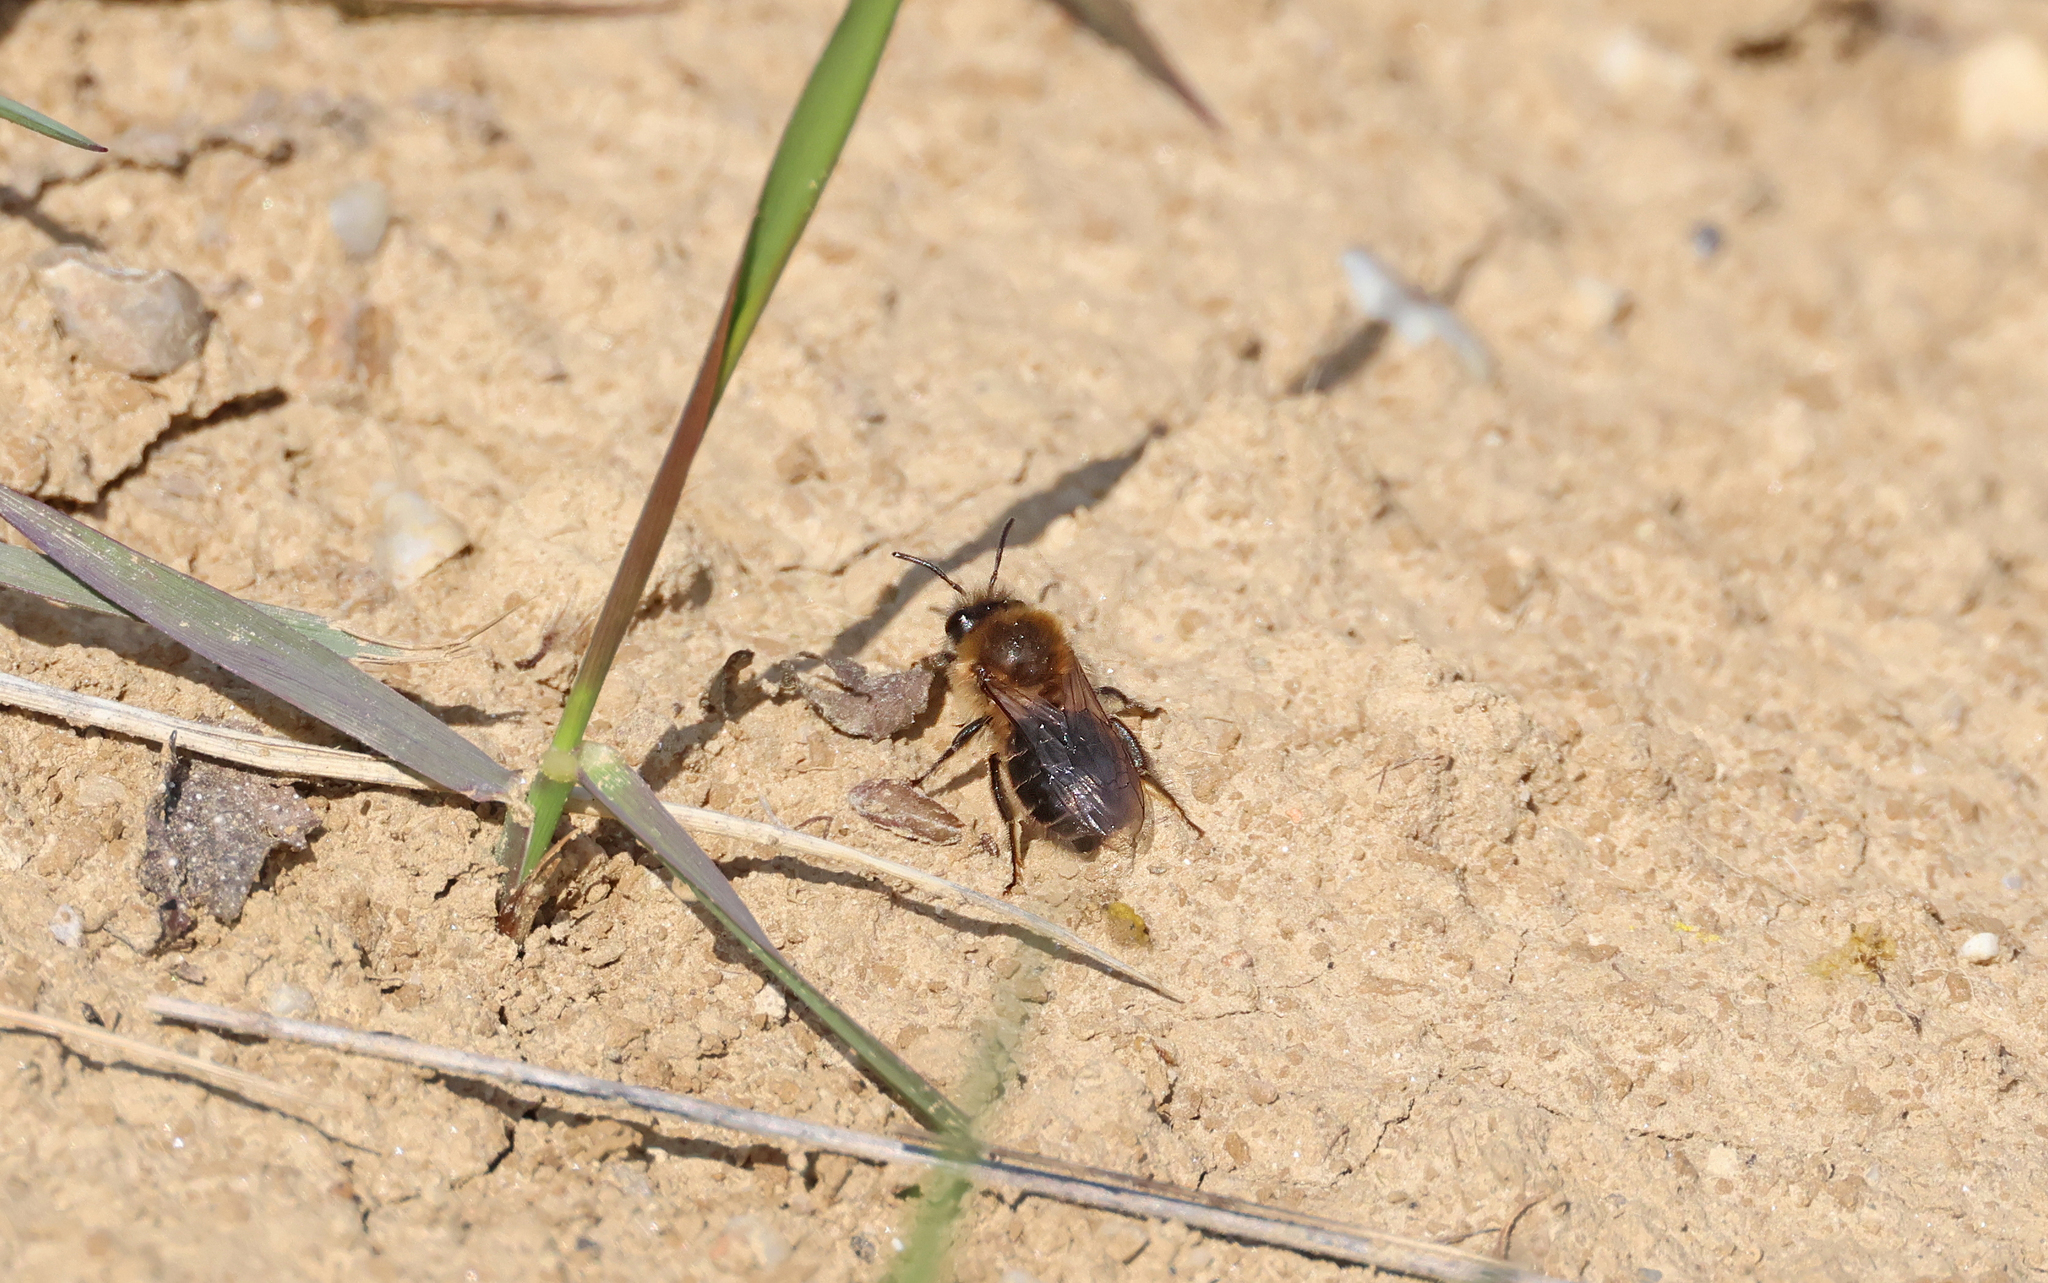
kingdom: Animalia
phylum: Arthropoda
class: Insecta
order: Hymenoptera
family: Colletidae
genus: Colletes
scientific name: Colletes cunicularius
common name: Early colletes
